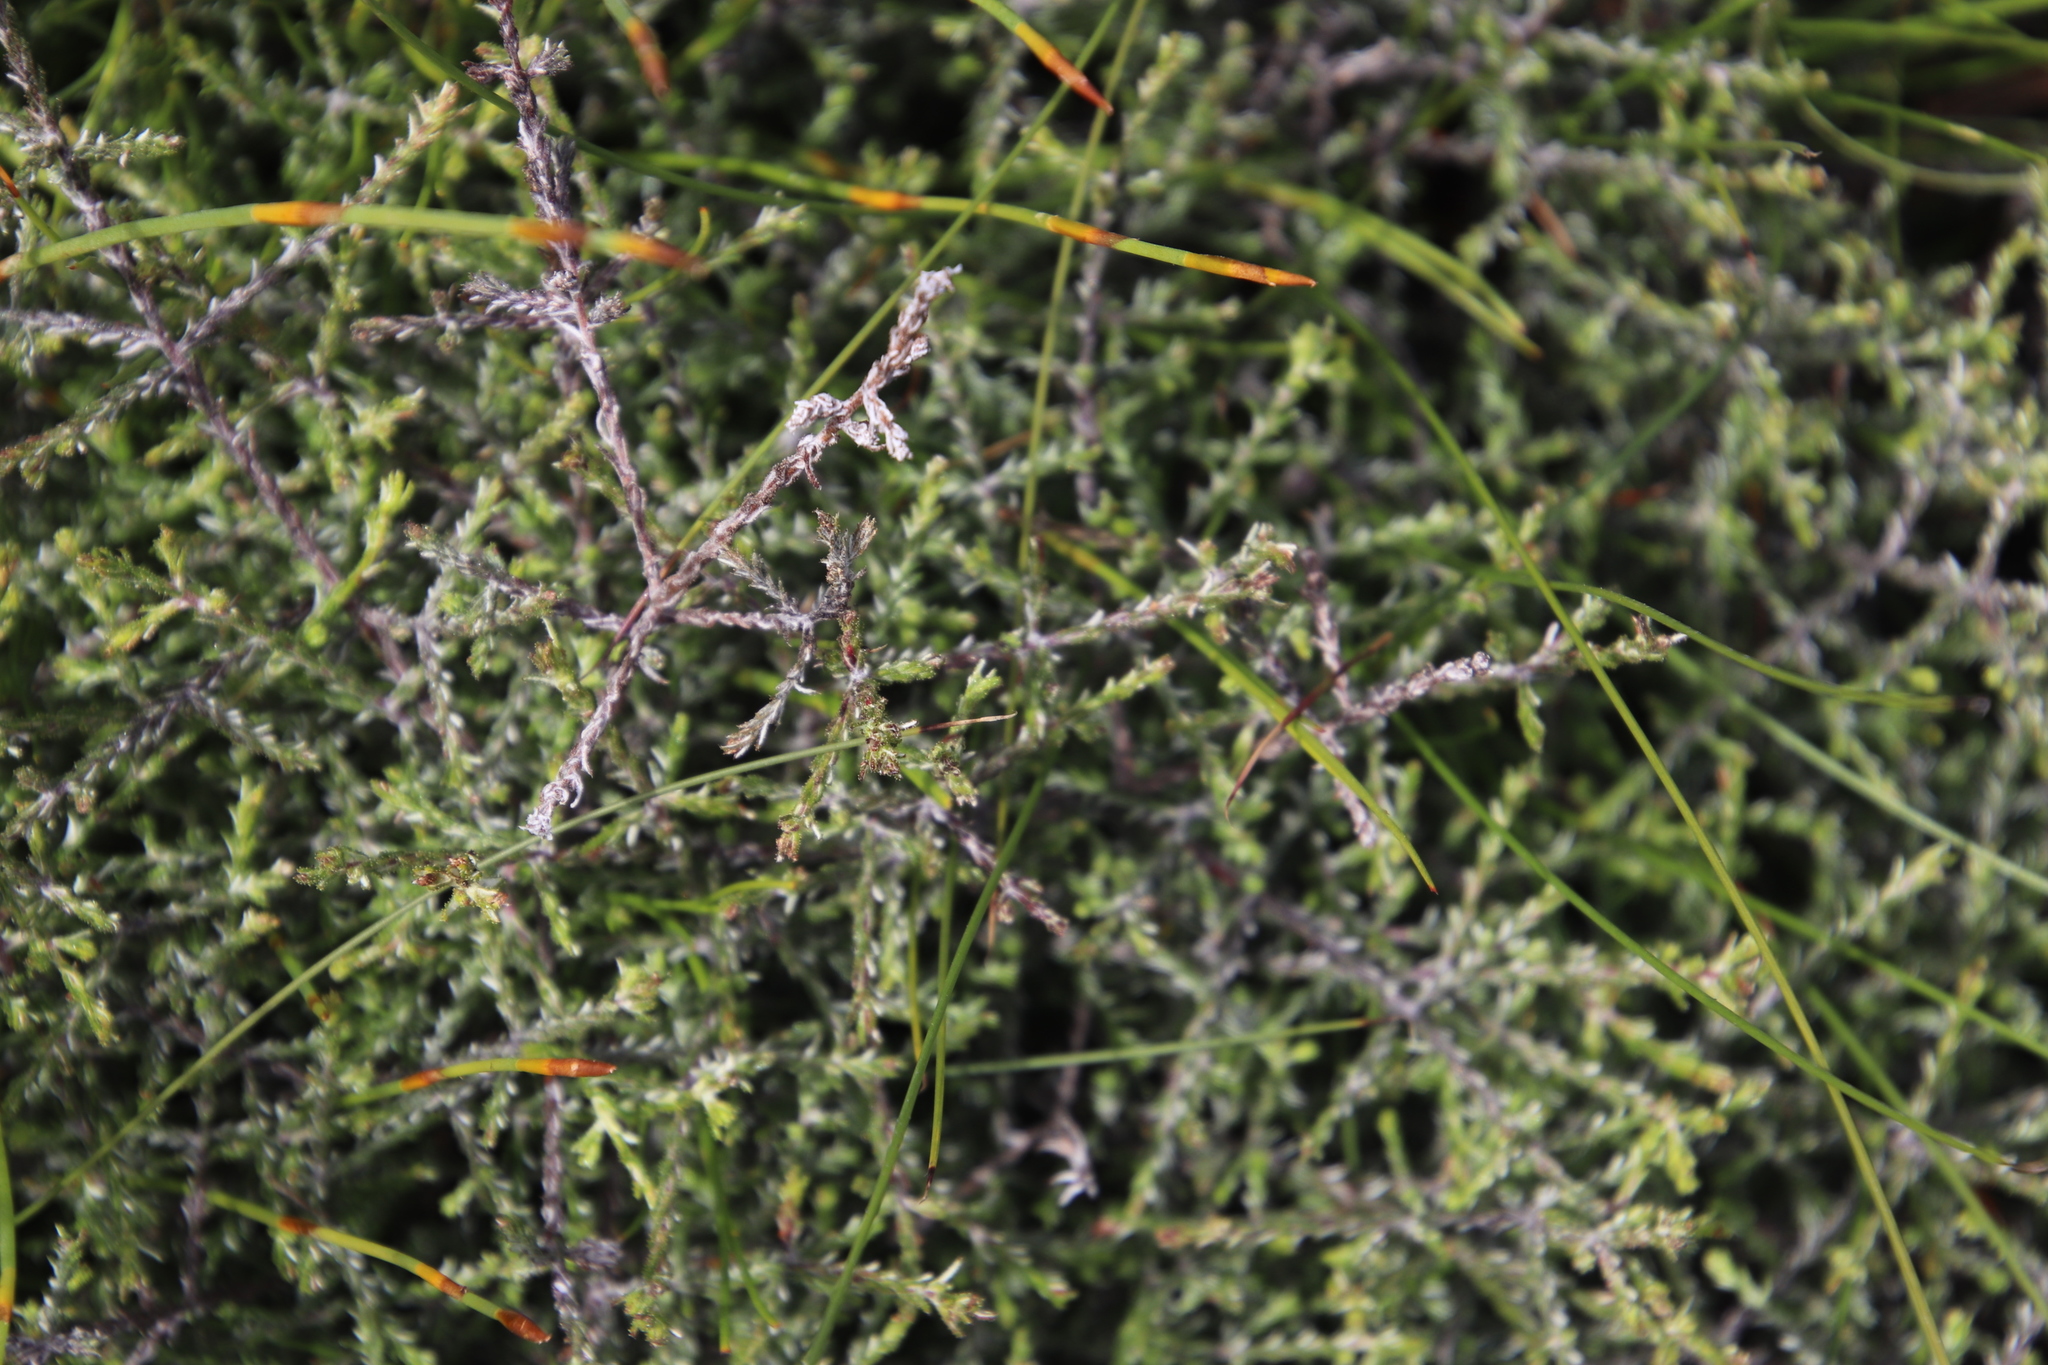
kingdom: Plantae
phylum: Tracheophyta
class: Magnoliopsida
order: Asterales
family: Asteraceae
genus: Myrovernix
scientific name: Myrovernix scaber
